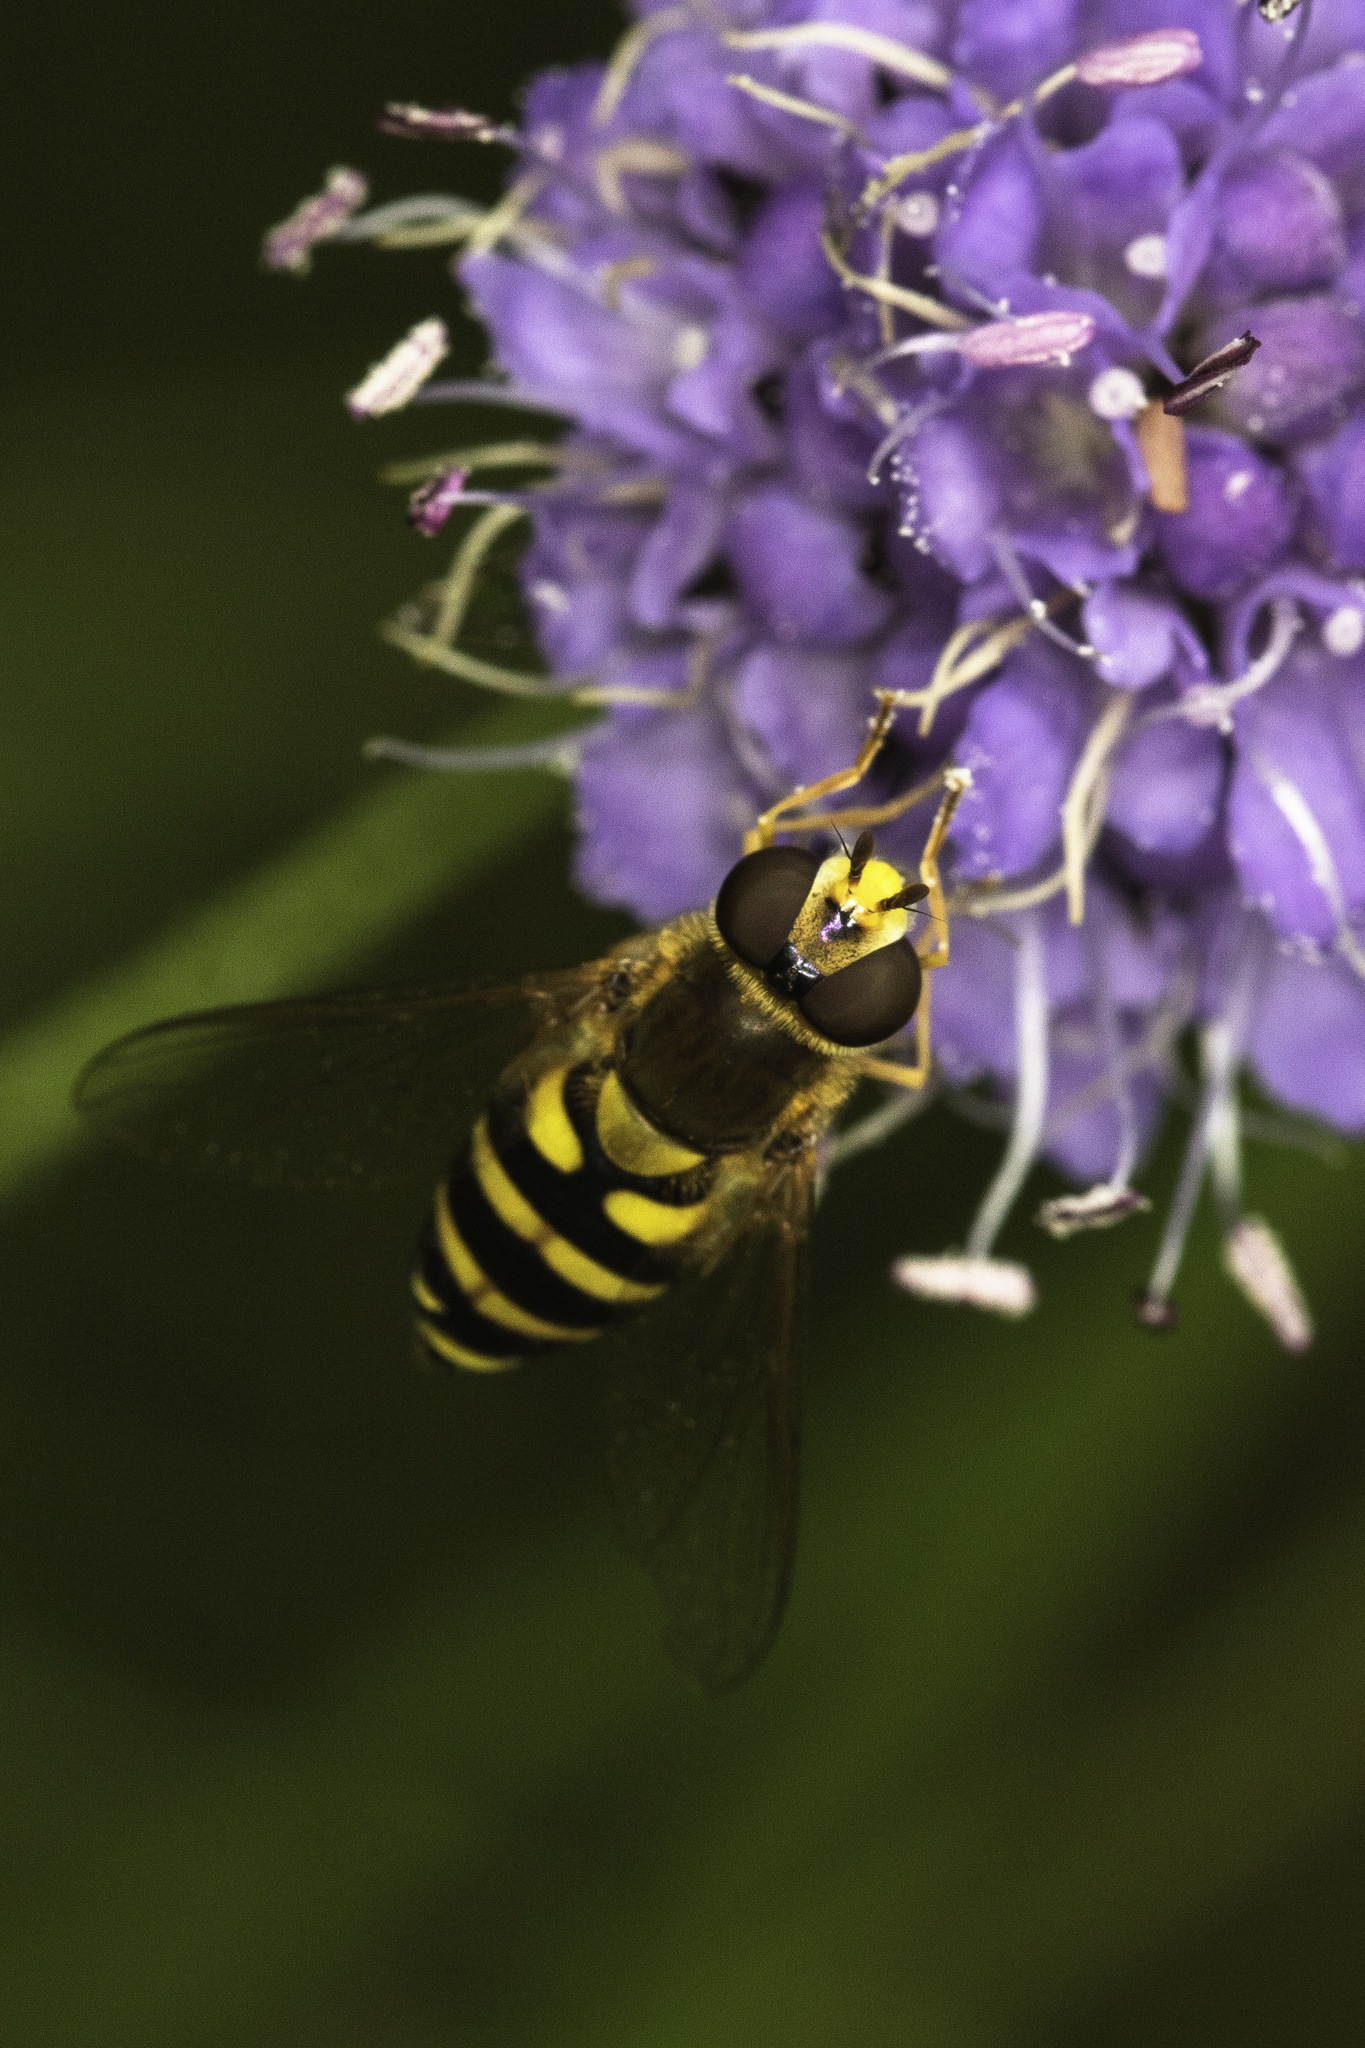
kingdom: Animalia
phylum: Arthropoda
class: Insecta
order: Diptera
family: Syrphidae
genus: Syrphus
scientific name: Syrphus
